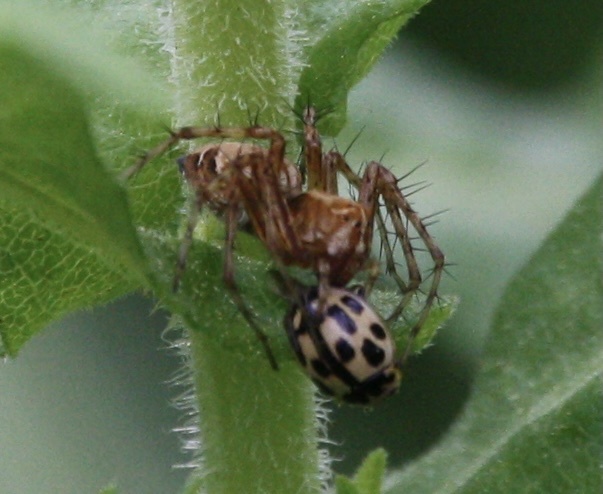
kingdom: Animalia
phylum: Arthropoda
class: Arachnida
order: Araneae
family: Oxyopidae
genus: Oxyopes
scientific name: Oxyopes scalaris
